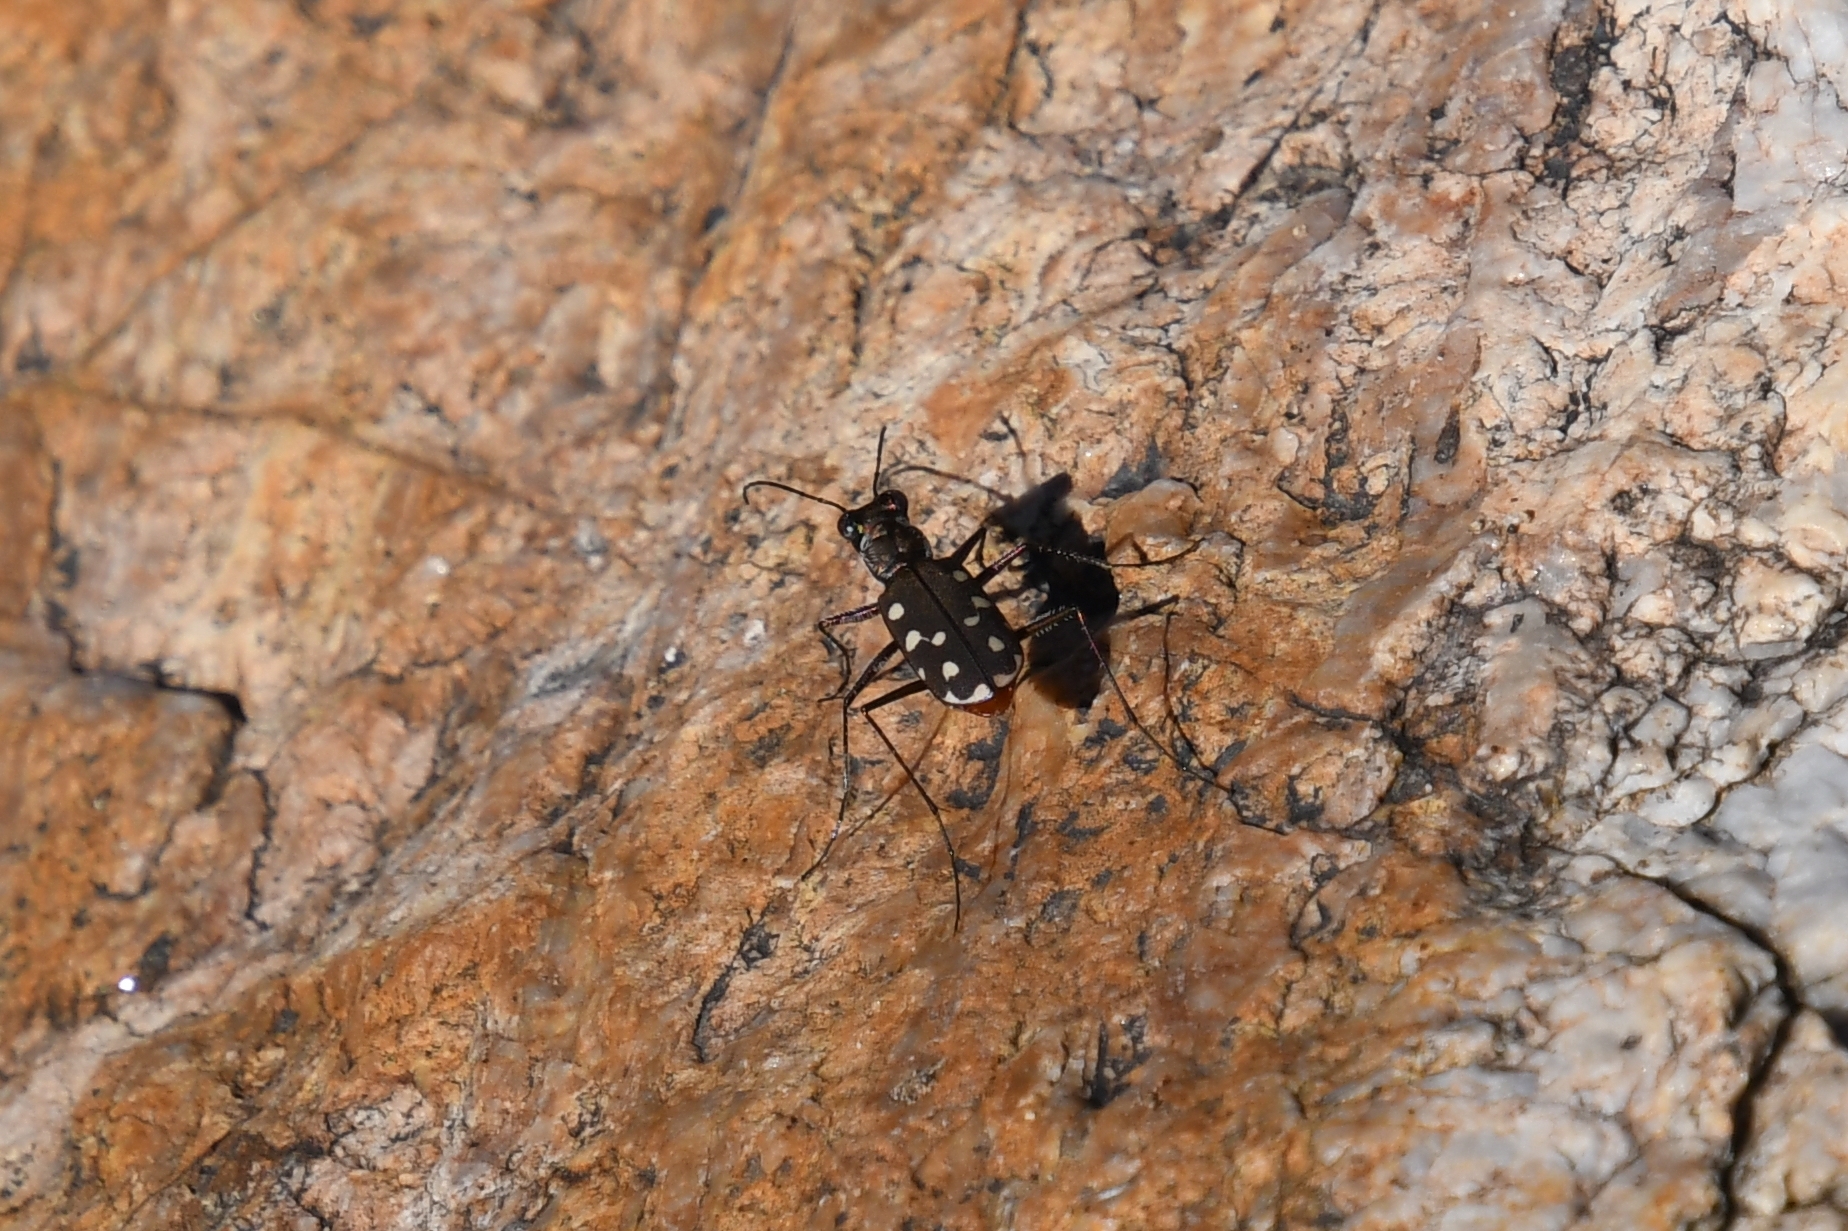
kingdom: Animalia
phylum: Arthropoda
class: Insecta
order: Coleoptera
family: Carabidae
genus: Cicindela
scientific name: Cicindela sedecimpunctata
